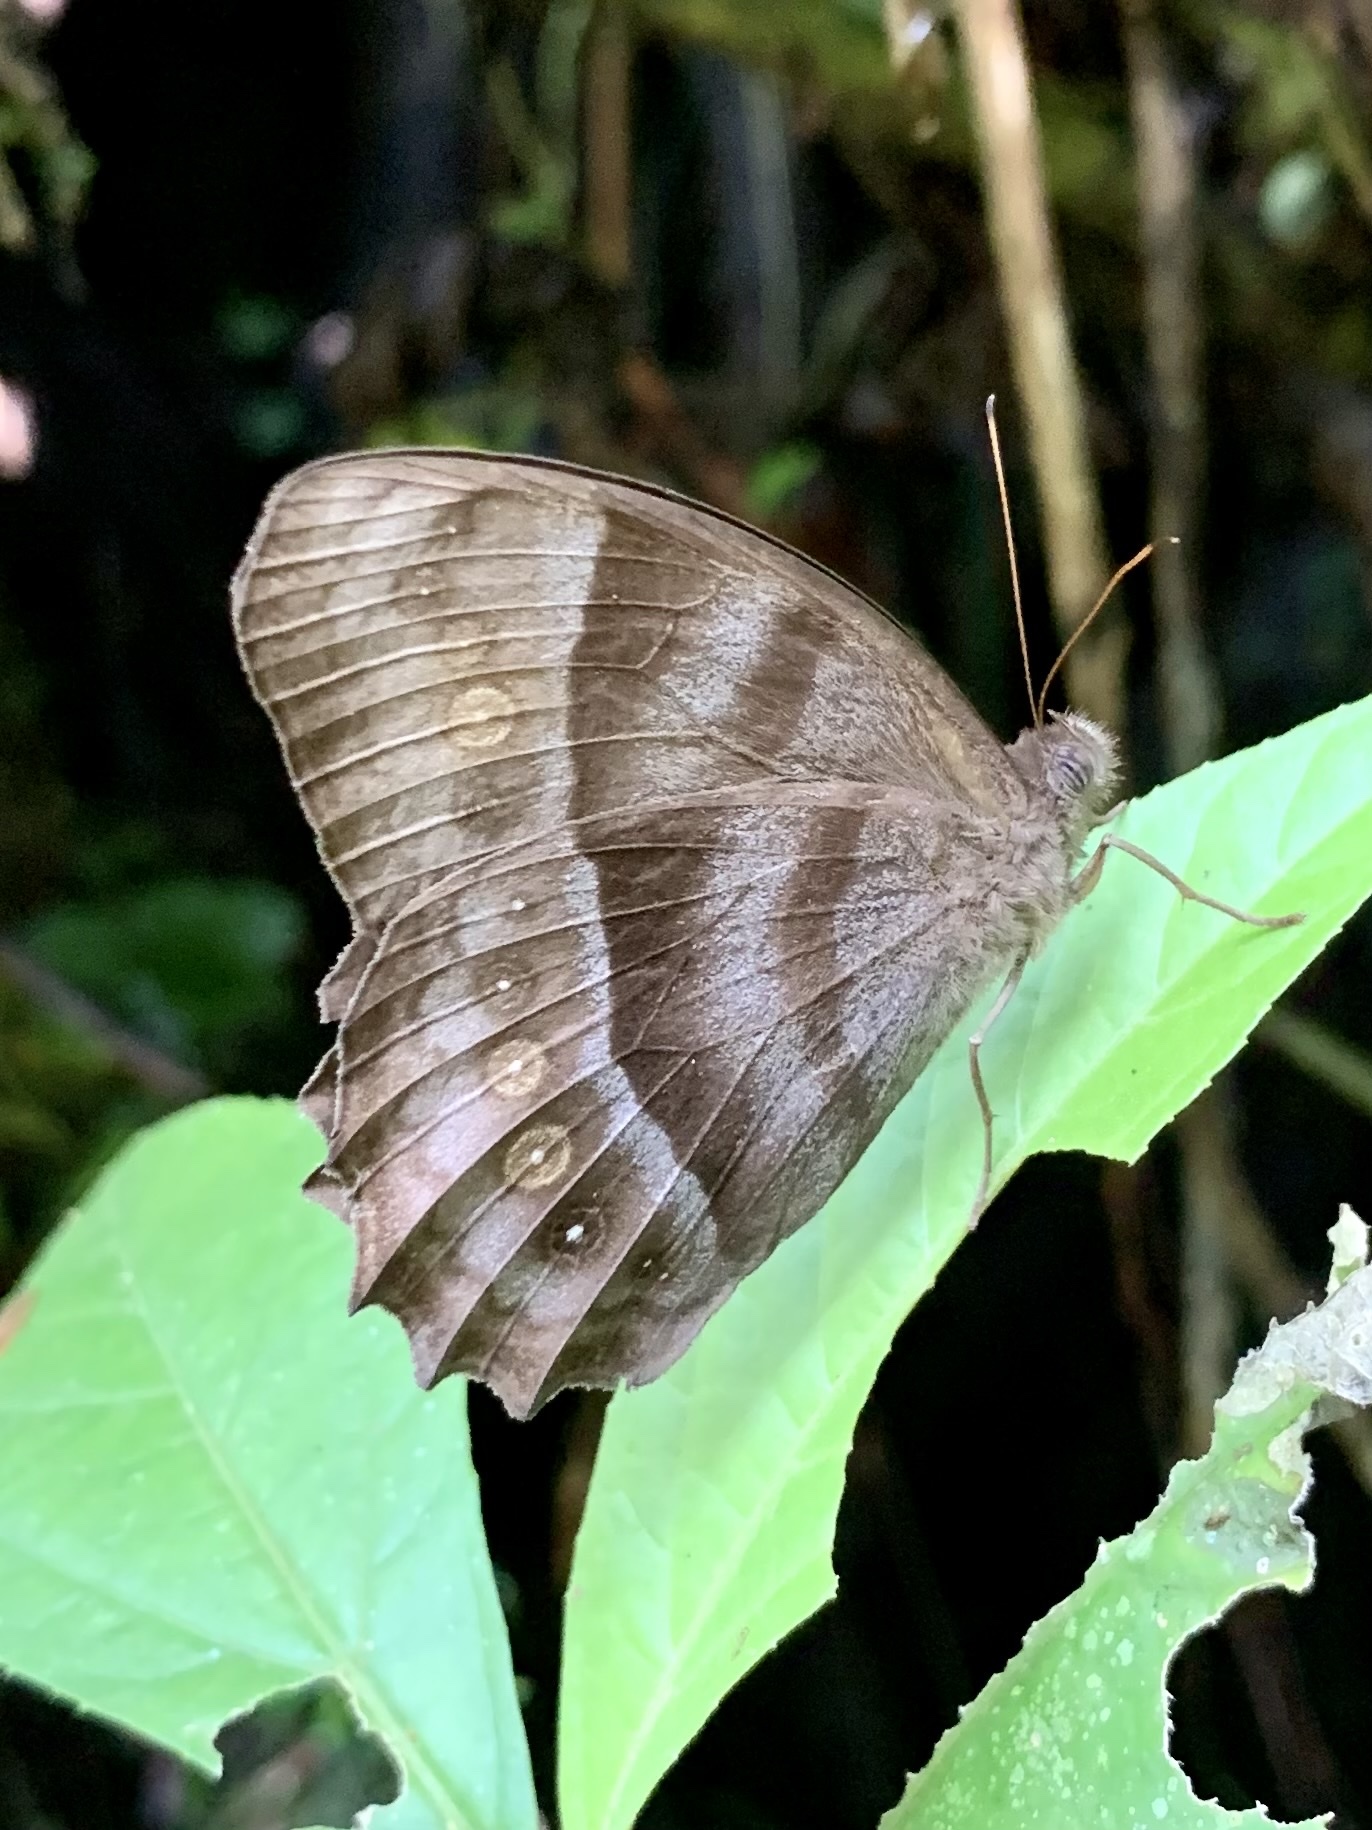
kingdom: Animalia
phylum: Arthropoda
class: Insecta
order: Lepidoptera
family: Nymphalidae
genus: Taygetis
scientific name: Taygetis thamyra
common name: Thamyra satyr
